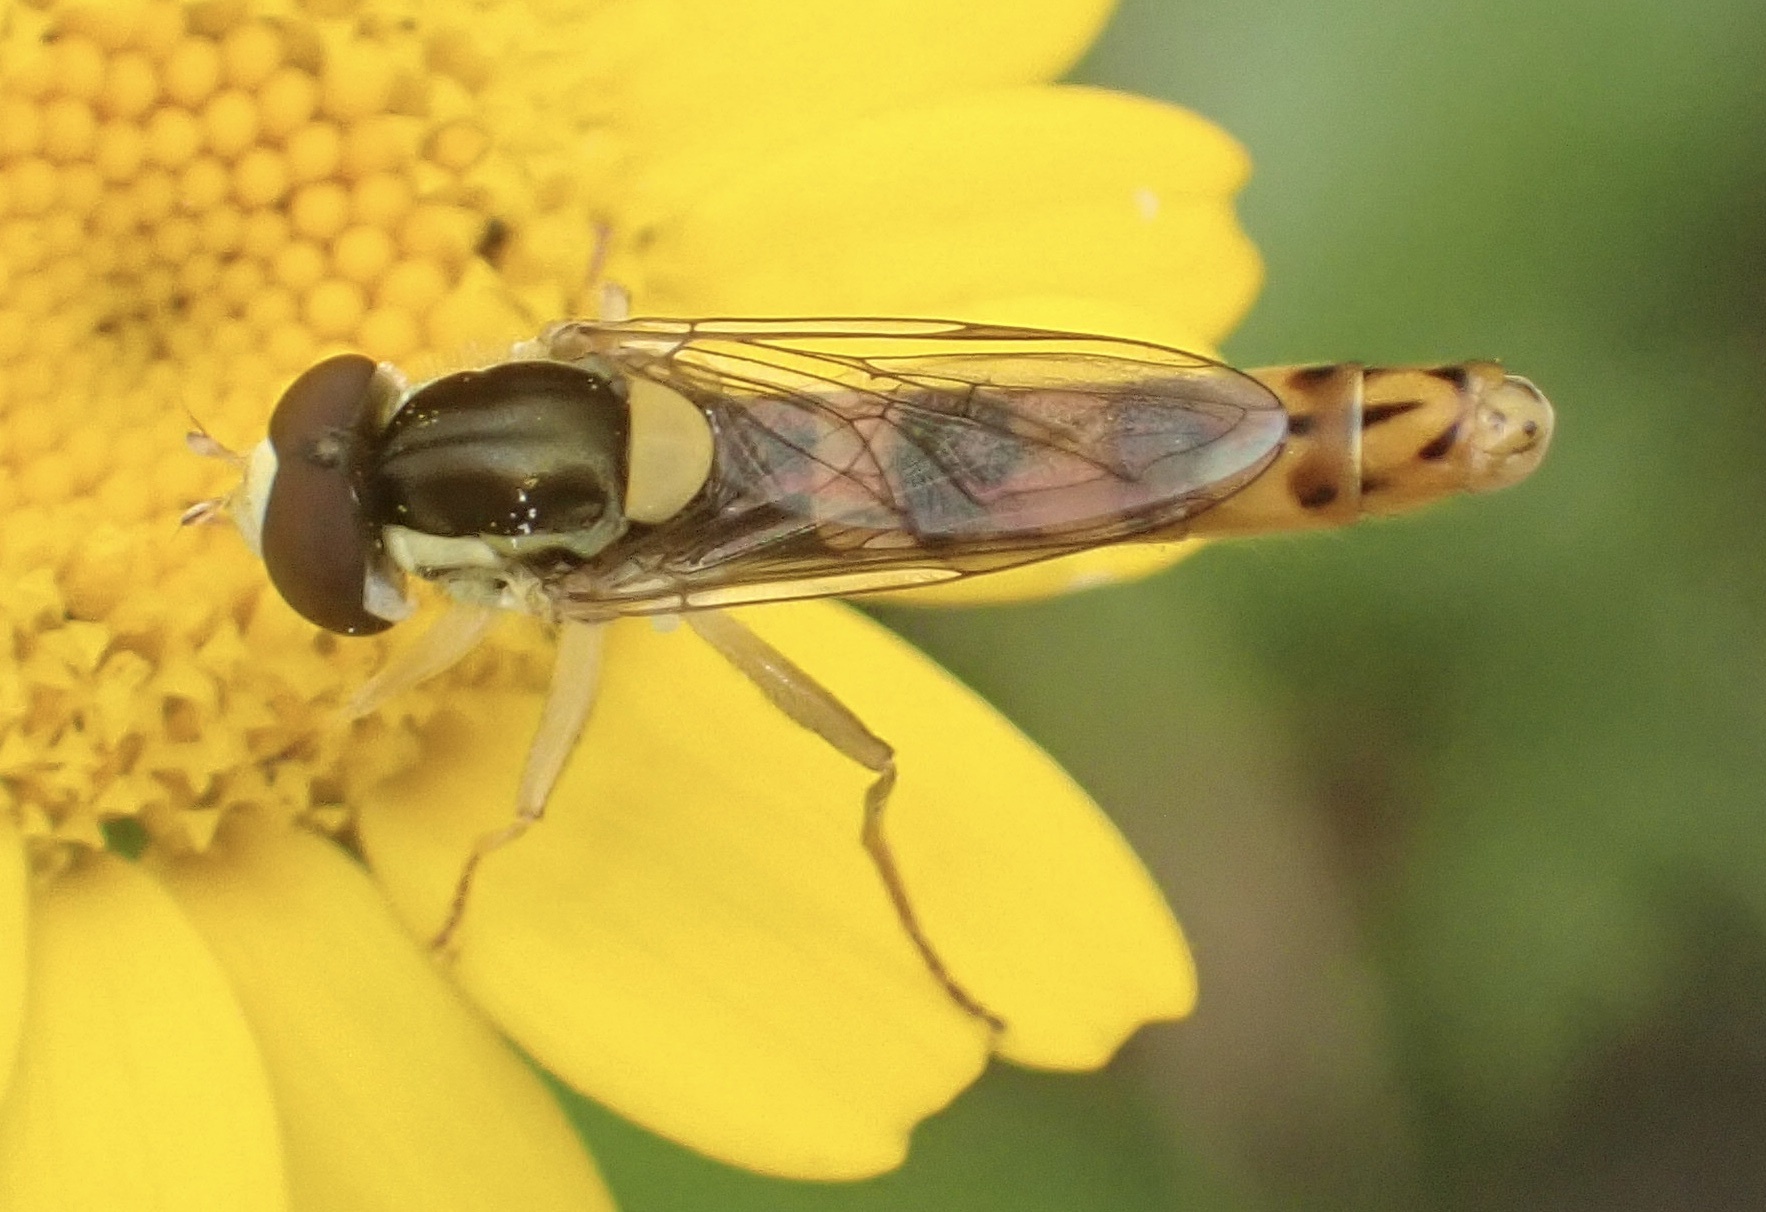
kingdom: Animalia
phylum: Arthropoda
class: Insecta
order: Diptera
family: Syrphidae
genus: Sphaerophoria
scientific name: Sphaerophoria scripta
